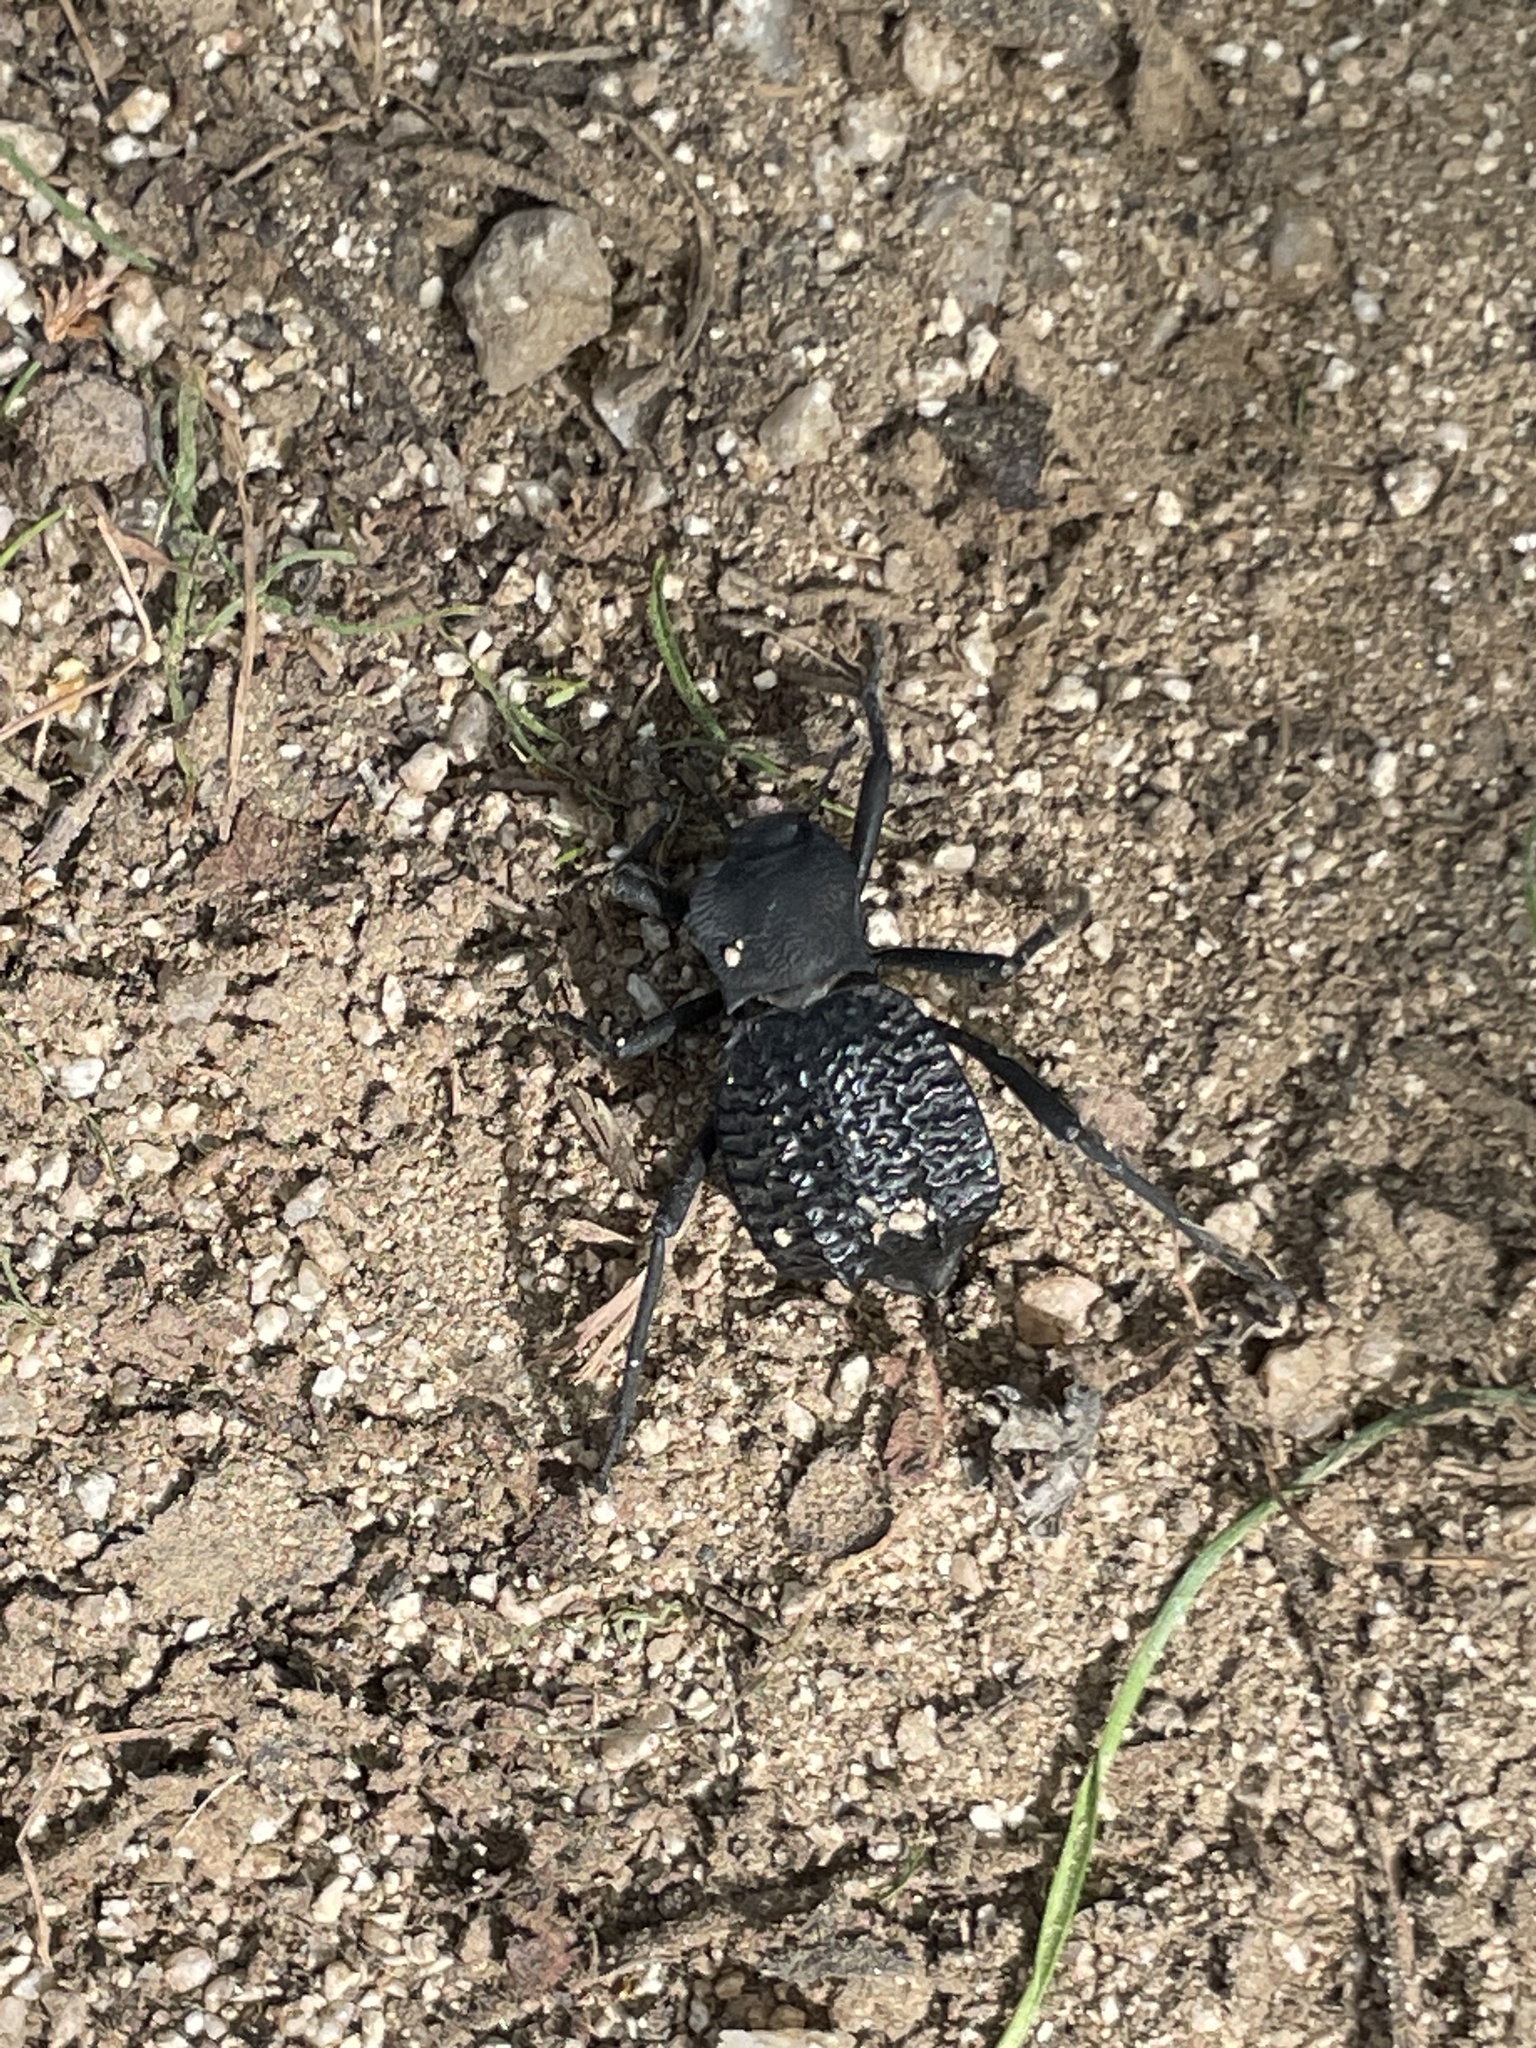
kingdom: Animalia
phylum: Arthropoda
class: Insecta
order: Coleoptera
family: Tenebrionidae
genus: Philolithus
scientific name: Philolithus aegrotus
